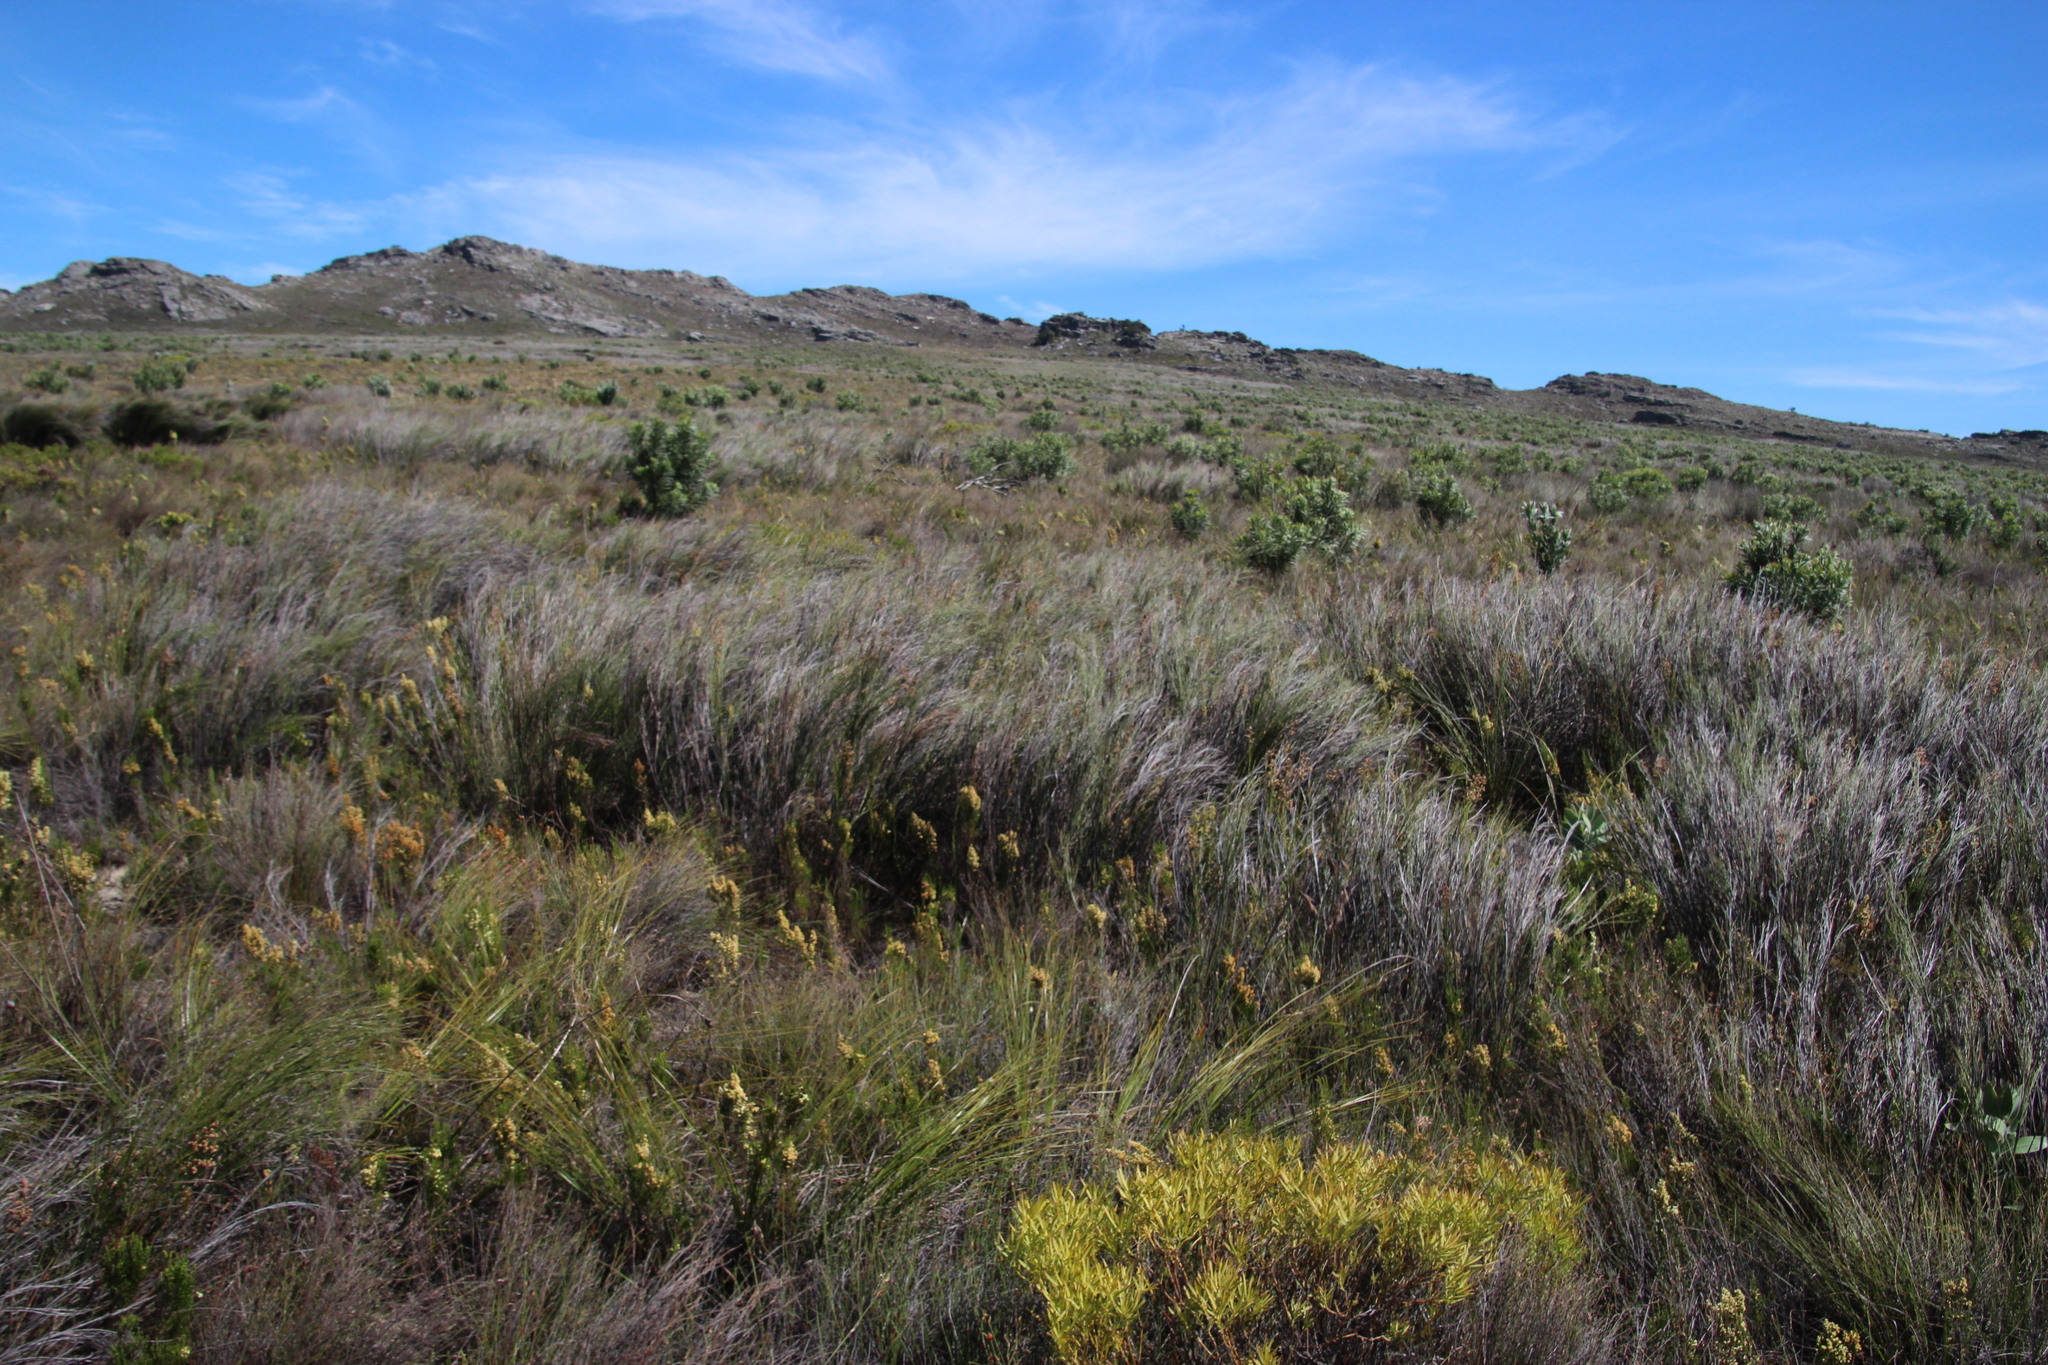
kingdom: Plantae
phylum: Tracheophyta
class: Liliopsida
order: Poales
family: Restionaceae
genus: Cannomois
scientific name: Cannomois virgata
